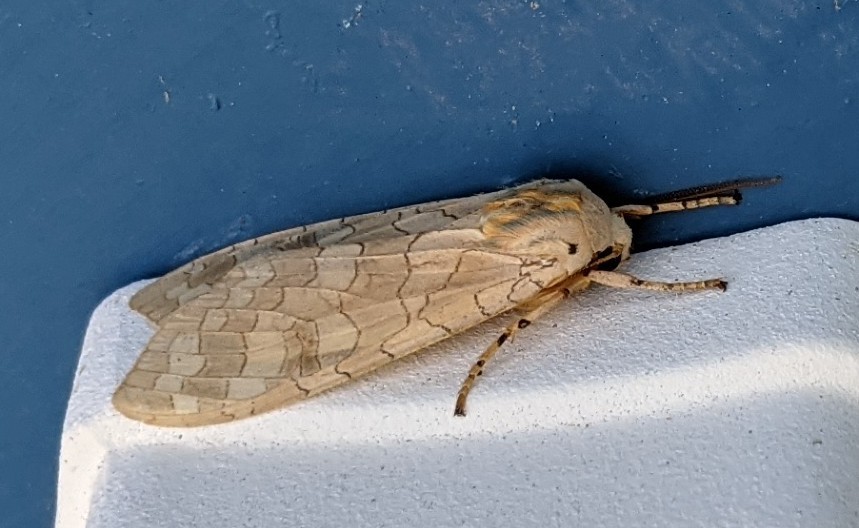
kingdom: Animalia
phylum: Arthropoda
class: Insecta
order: Lepidoptera
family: Erebidae
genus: Halysidota
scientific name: Halysidota tessellaris
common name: Banded tussock moth
